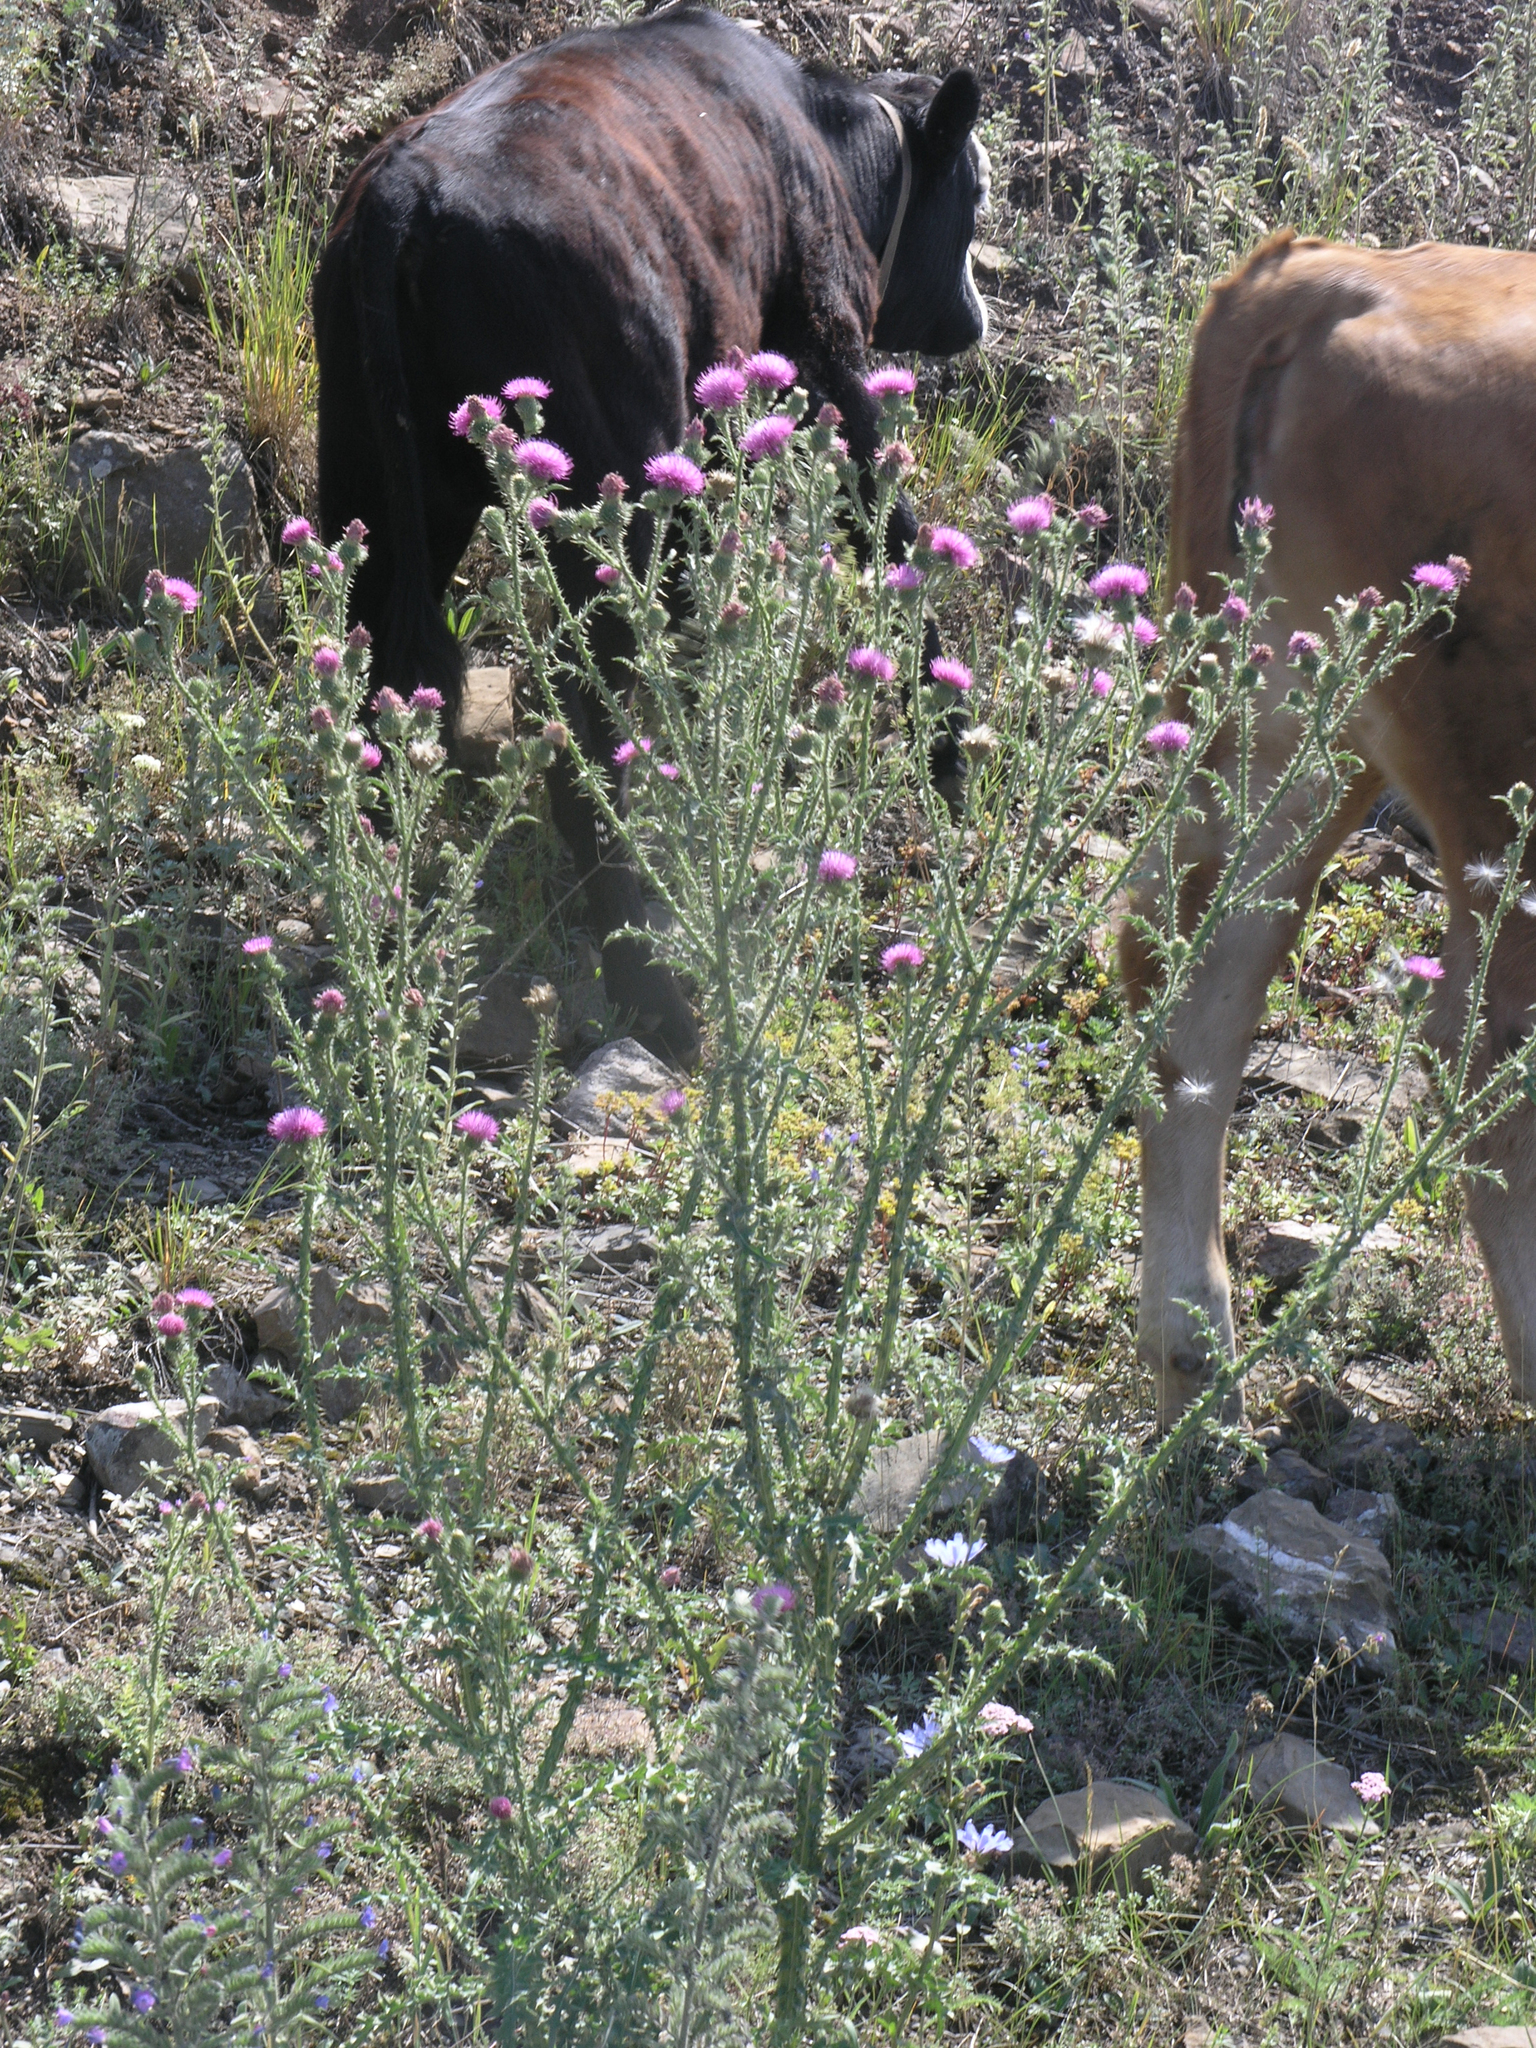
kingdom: Plantae
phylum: Tracheophyta
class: Magnoliopsida
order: Asterales
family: Asteraceae
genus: Carduus
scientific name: Carduus acanthoides
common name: Plumeless thistle
